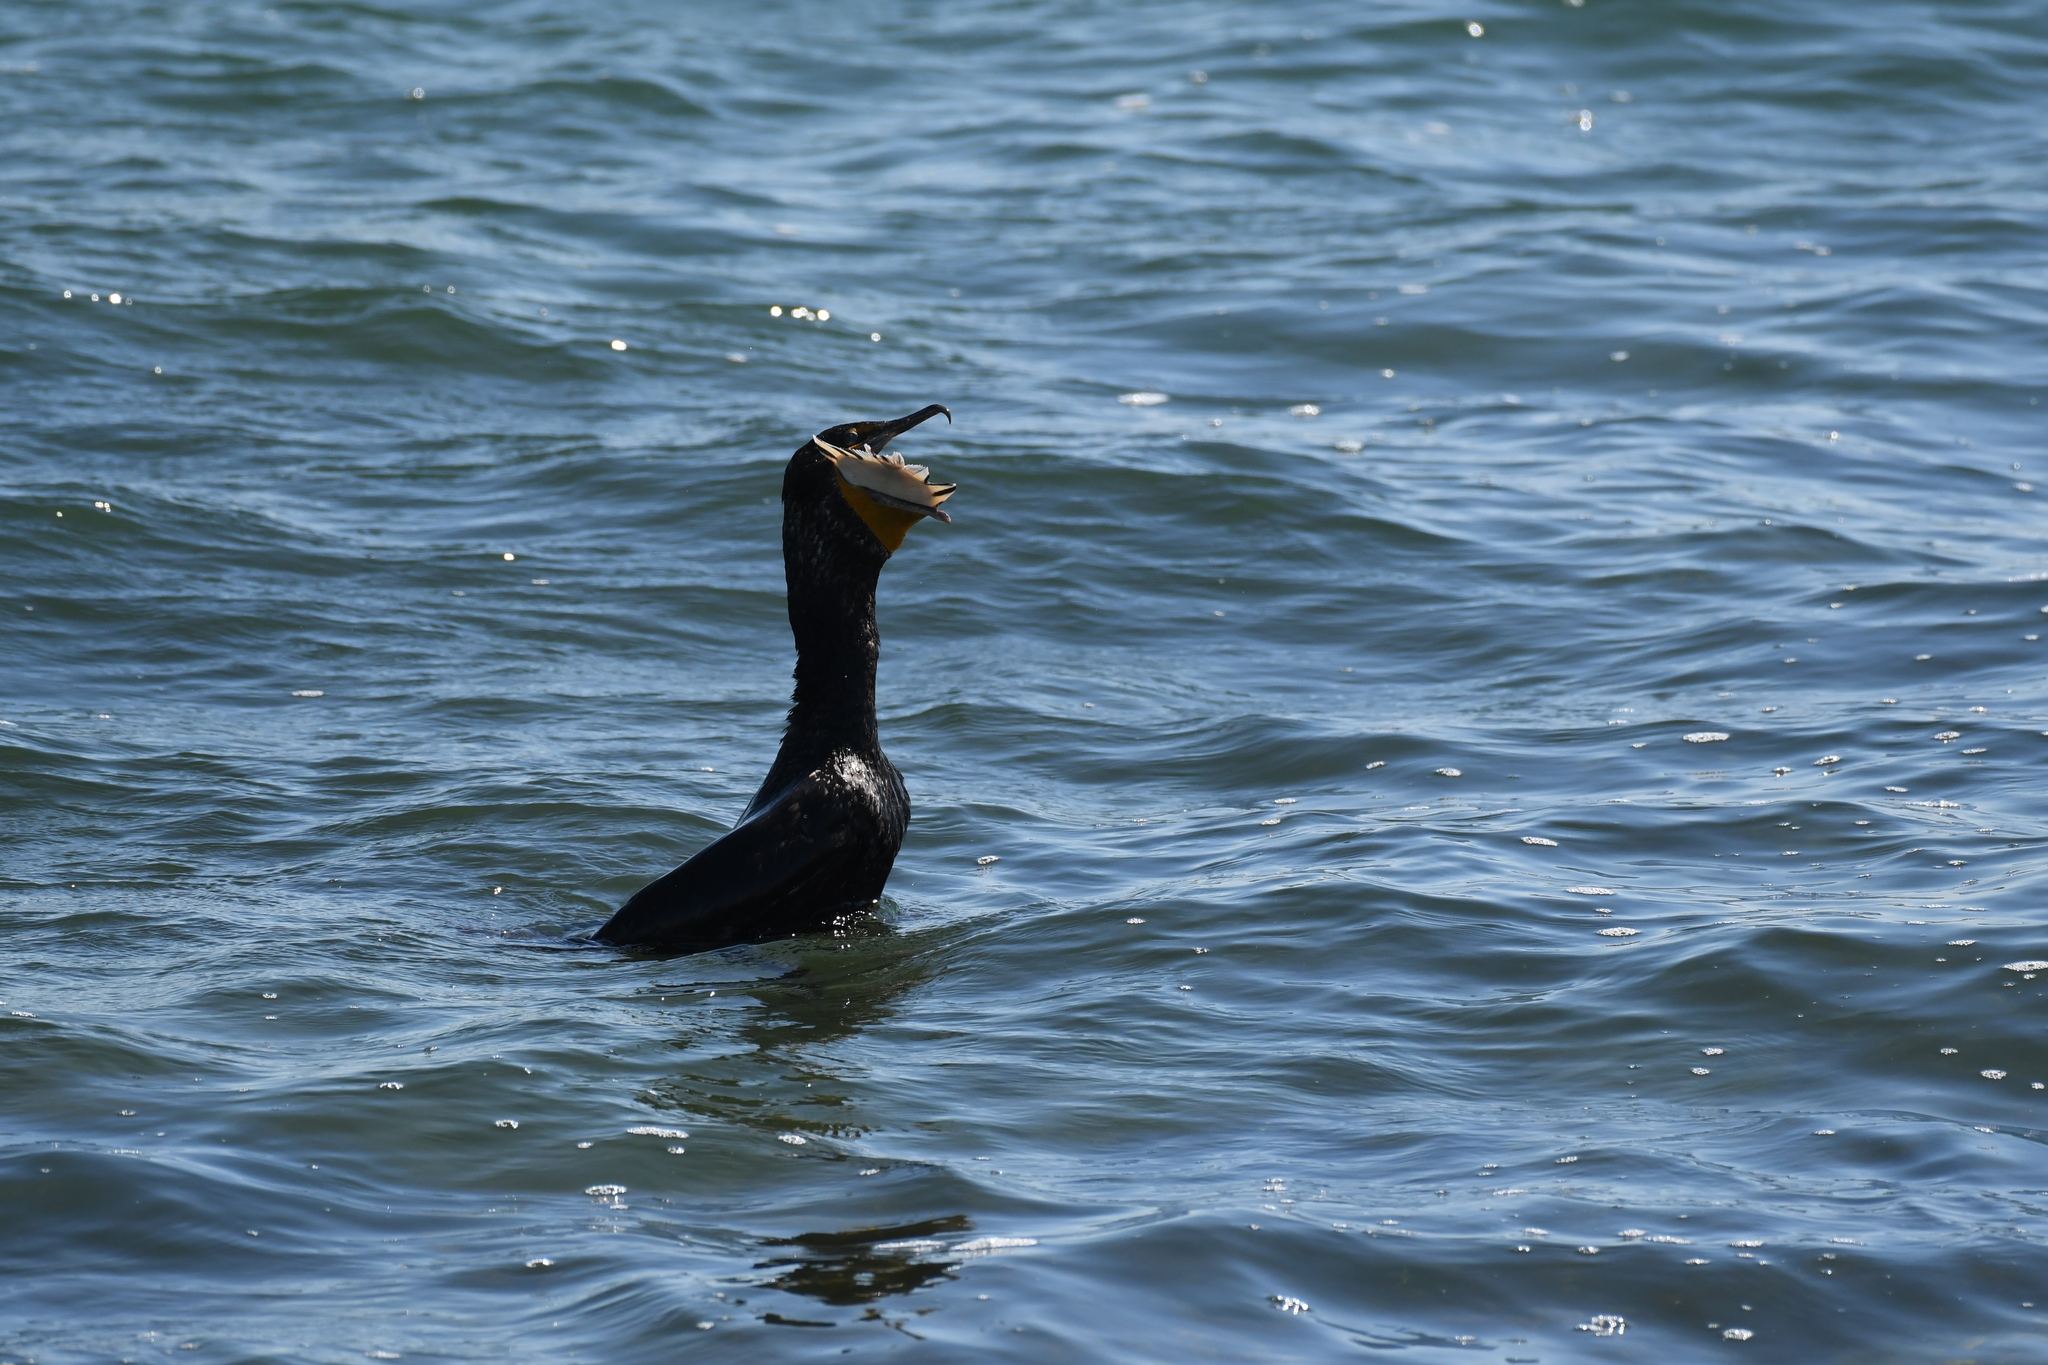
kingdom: Animalia
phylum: Chordata
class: Aves
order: Suliformes
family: Phalacrocoracidae
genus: Phalacrocorax
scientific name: Phalacrocorax auritus
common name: Double-crested cormorant
